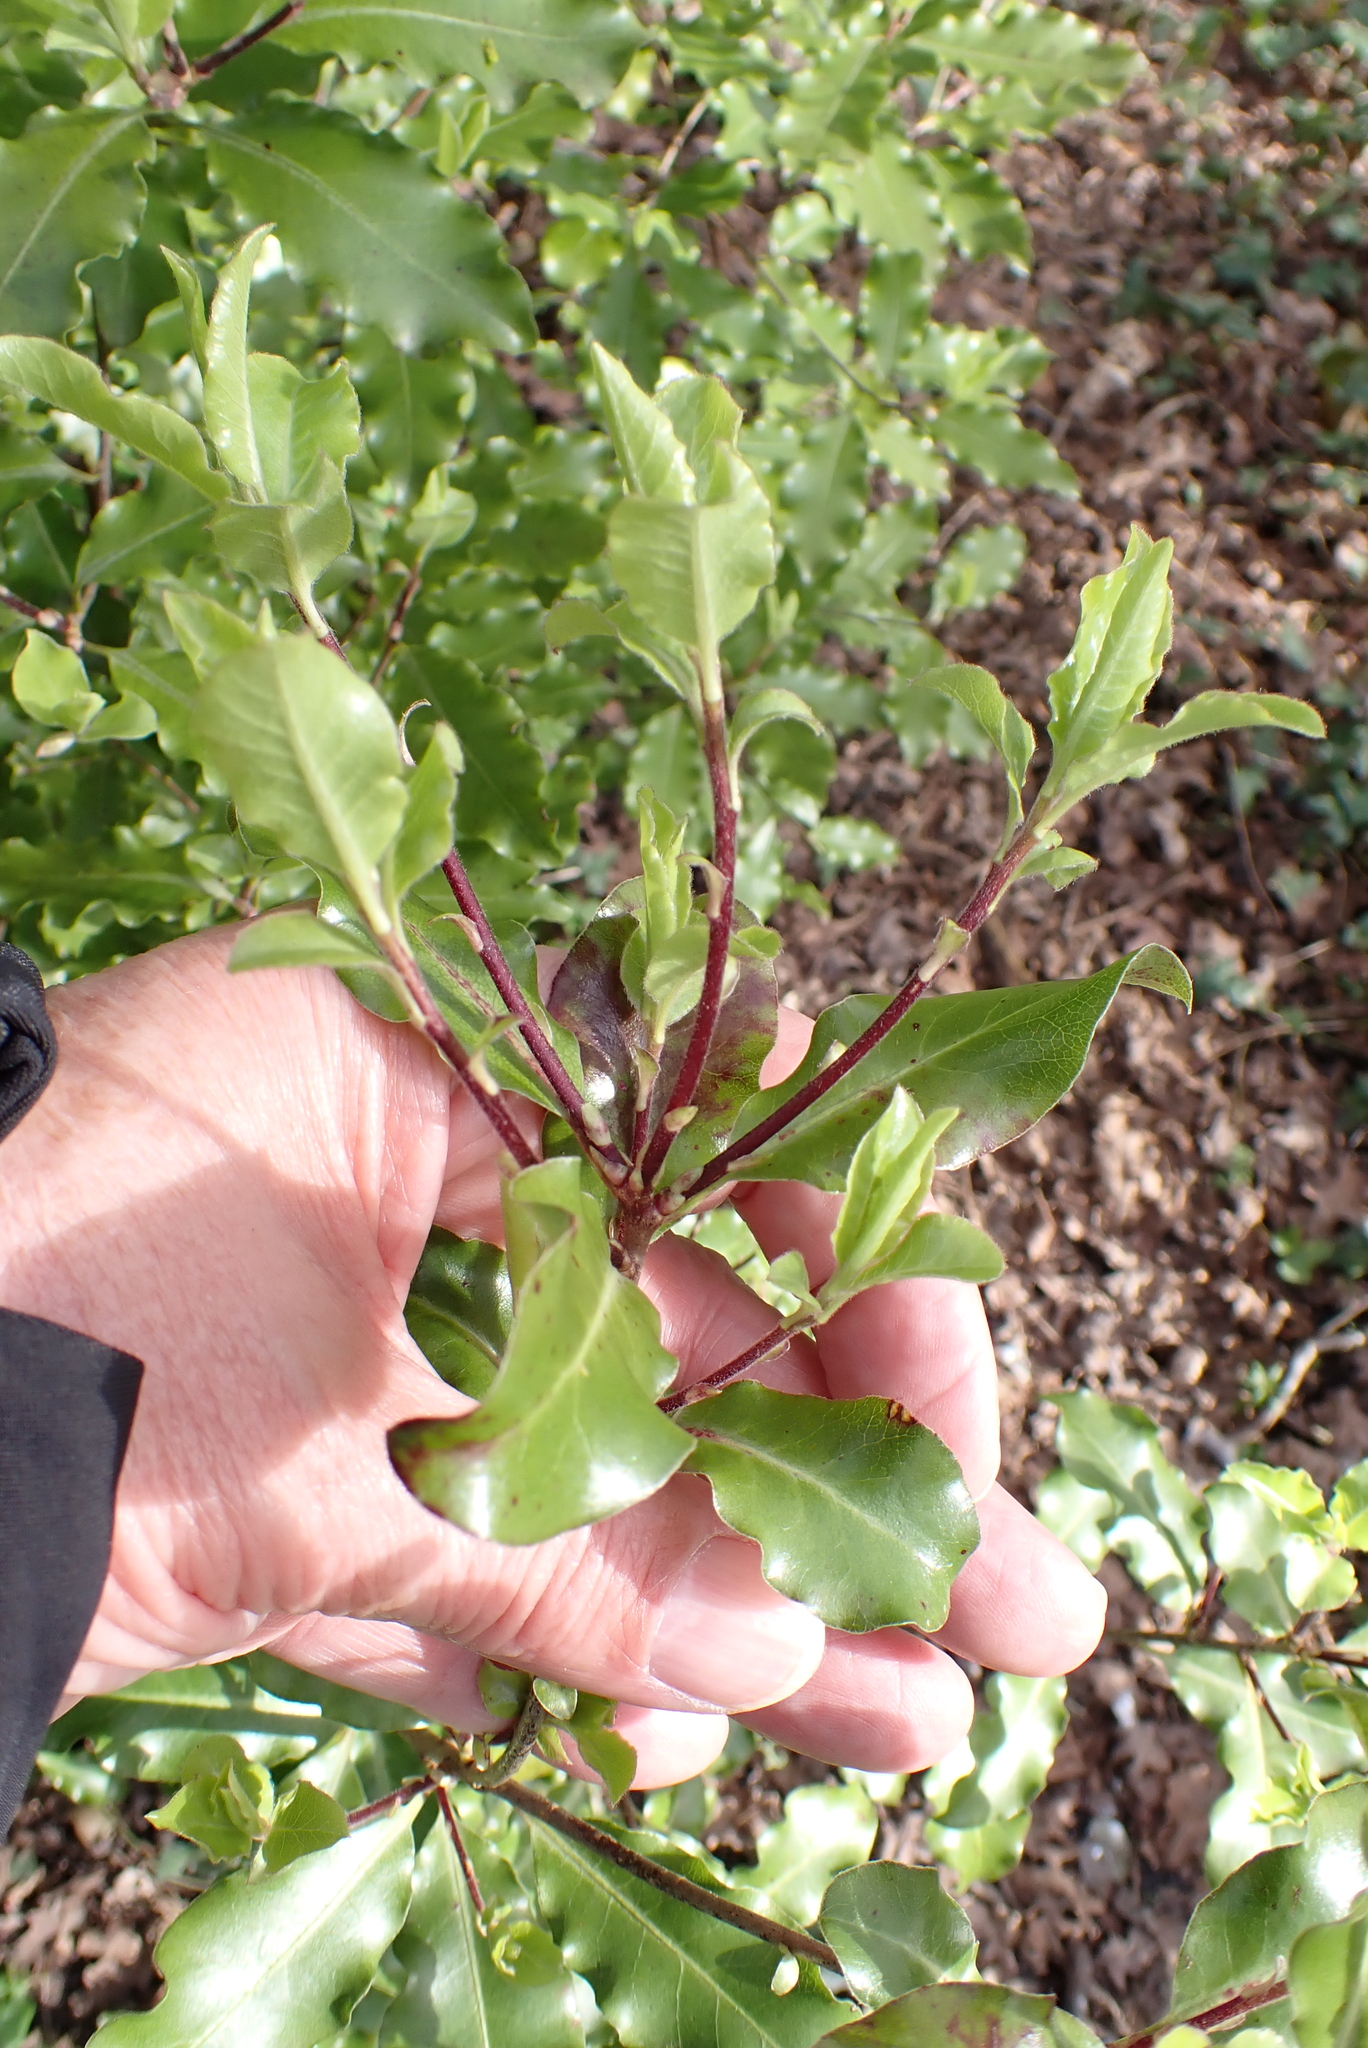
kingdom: Plantae
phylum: Tracheophyta
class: Magnoliopsida
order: Apiales
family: Pittosporaceae
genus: Pittosporum
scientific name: Pittosporum tenuifolium
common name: Kohuhu
